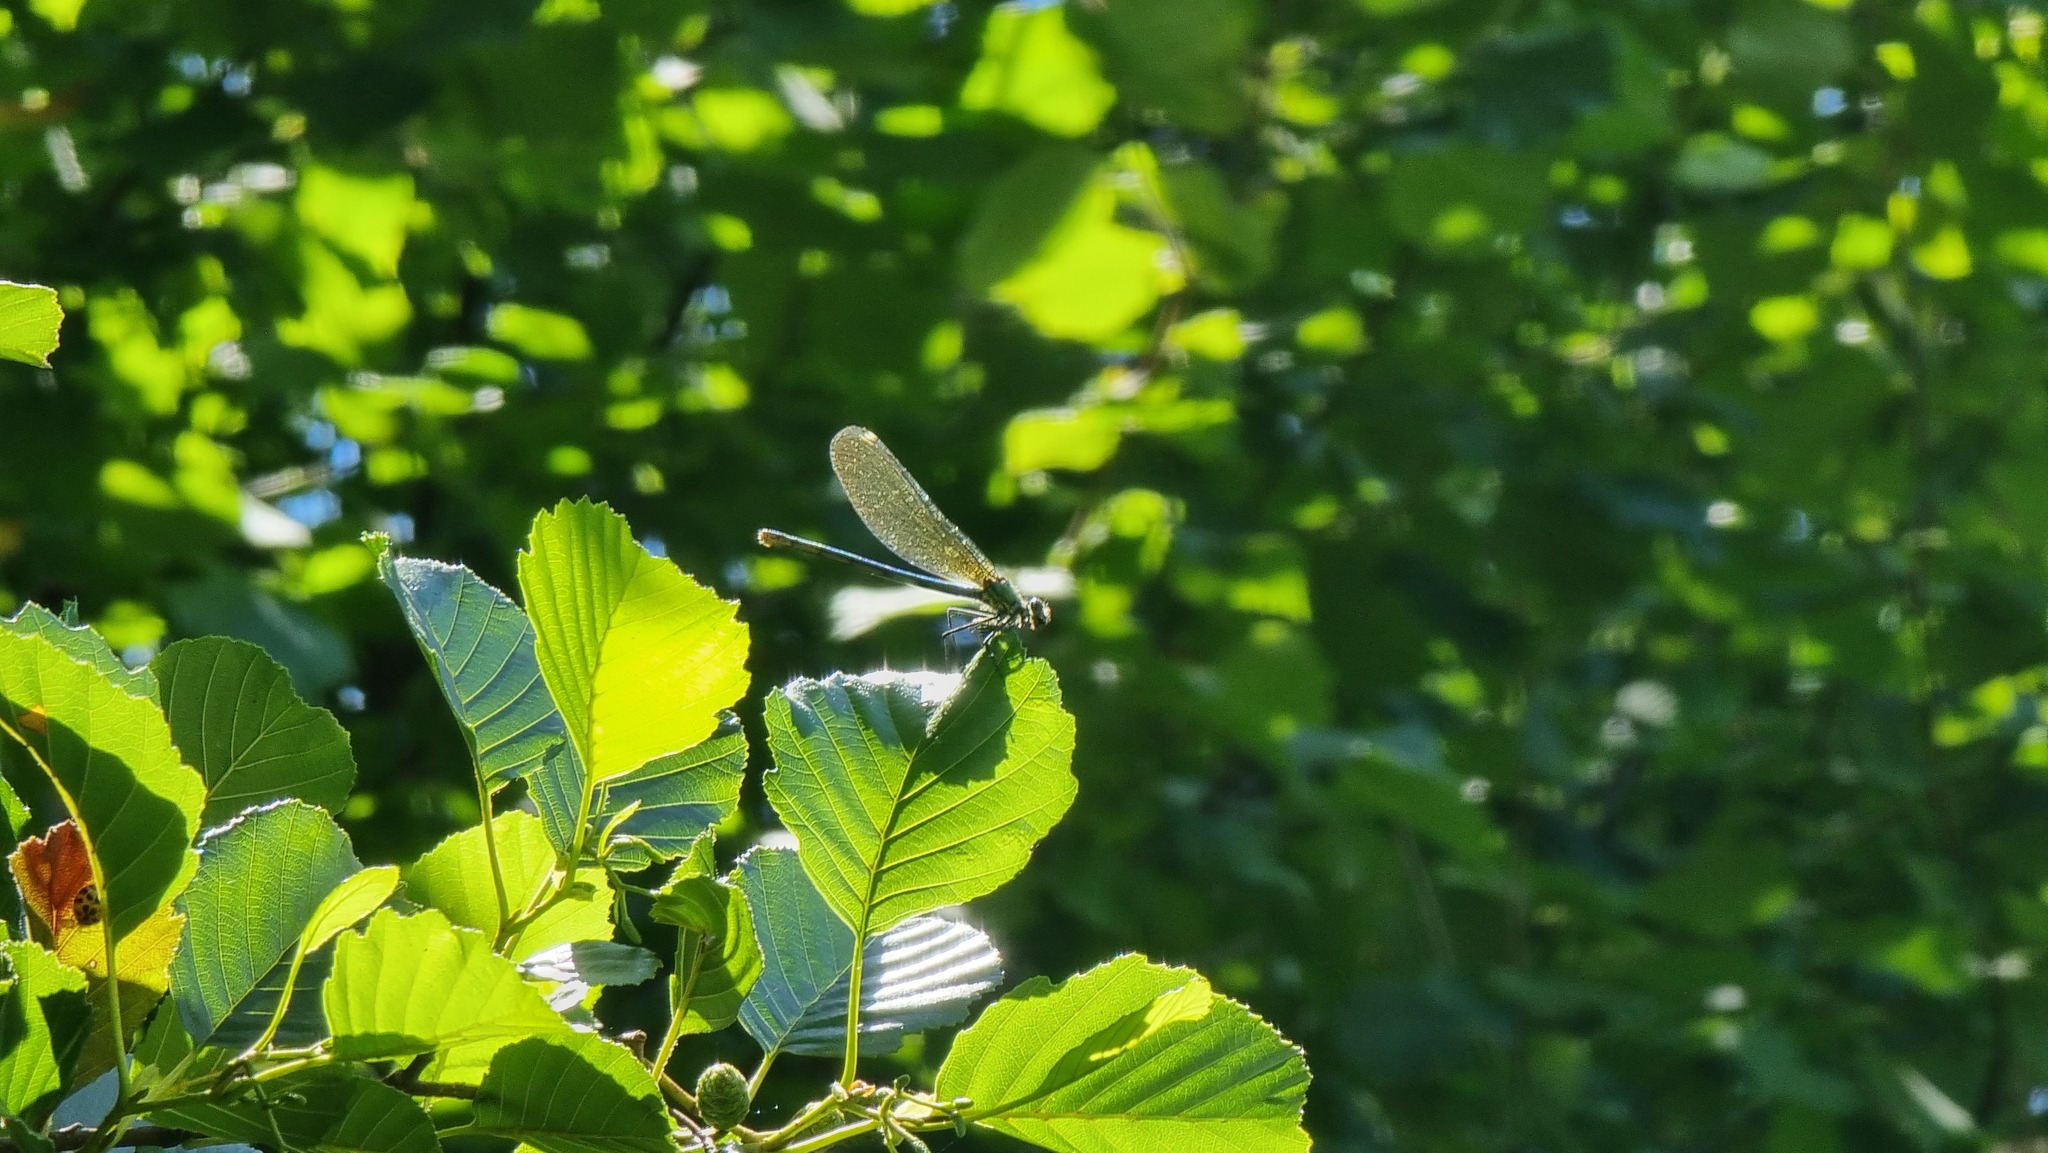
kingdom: Animalia
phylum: Arthropoda
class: Insecta
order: Odonata
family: Calopterygidae
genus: Calopteryx
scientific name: Calopteryx splendens
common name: Banded demoiselle
